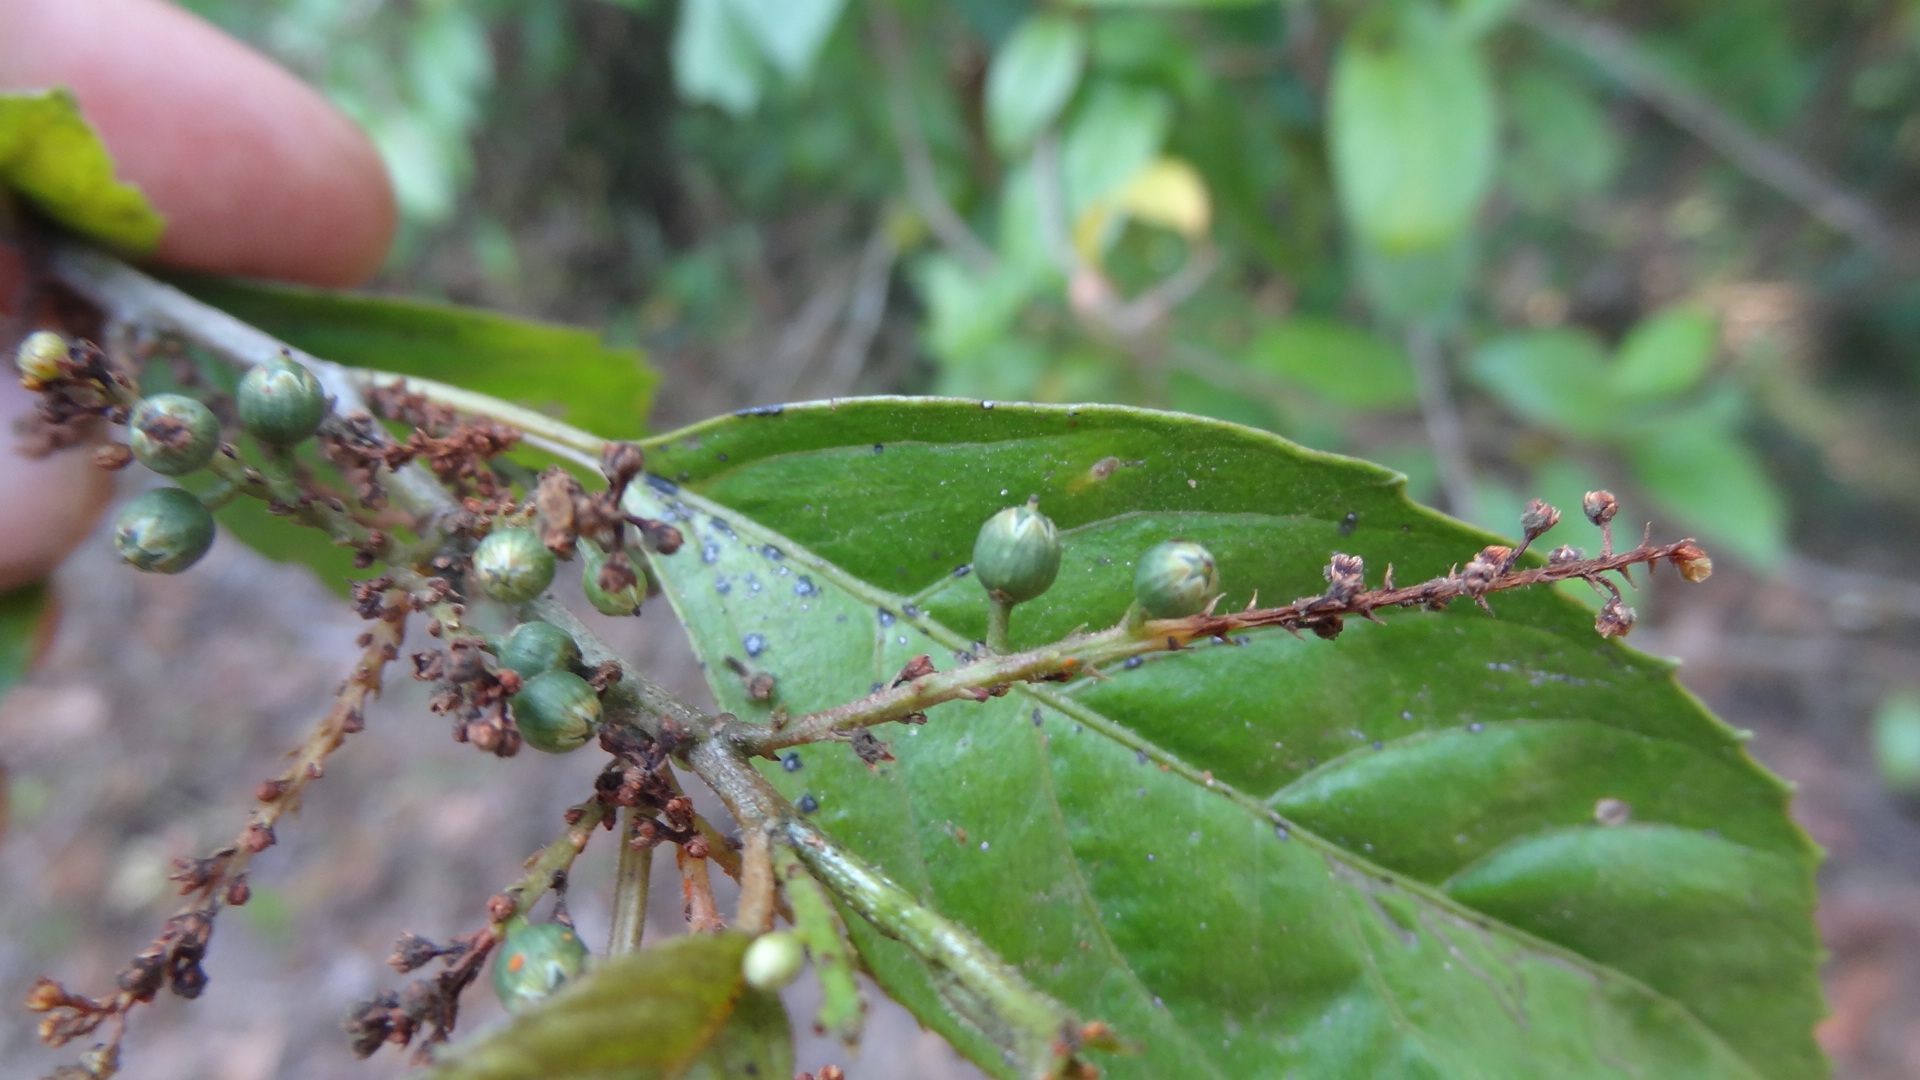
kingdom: Plantae
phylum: Tracheophyta
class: Magnoliopsida
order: Ericales
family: Primulaceae
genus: Maesa
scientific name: Maesa indica
